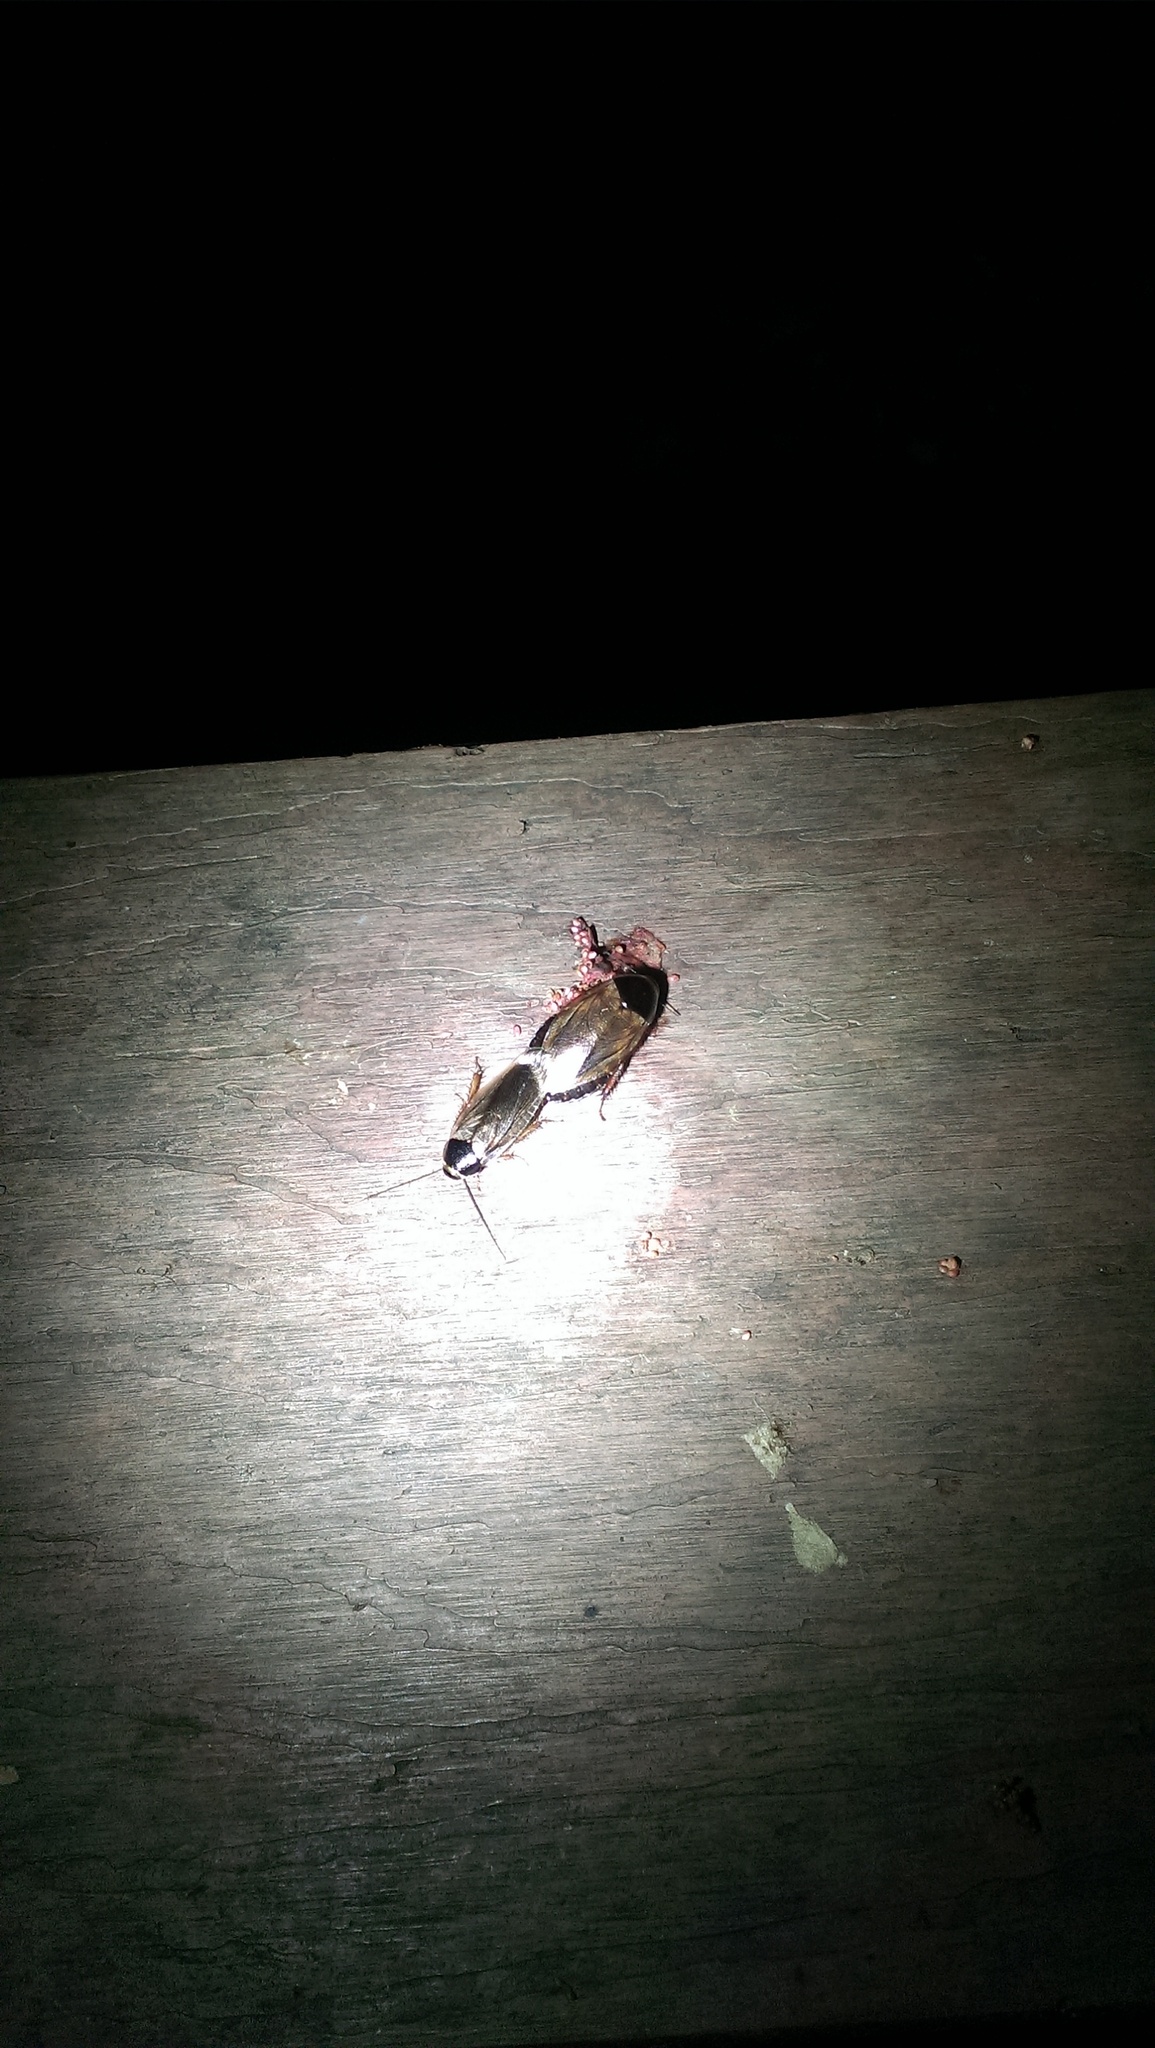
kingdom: Animalia
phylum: Arthropoda
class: Insecta
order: Blattodea
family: Blaberidae
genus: Pycnoscelus
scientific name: Pycnoscelus indicus
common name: Burrowing cockroach
